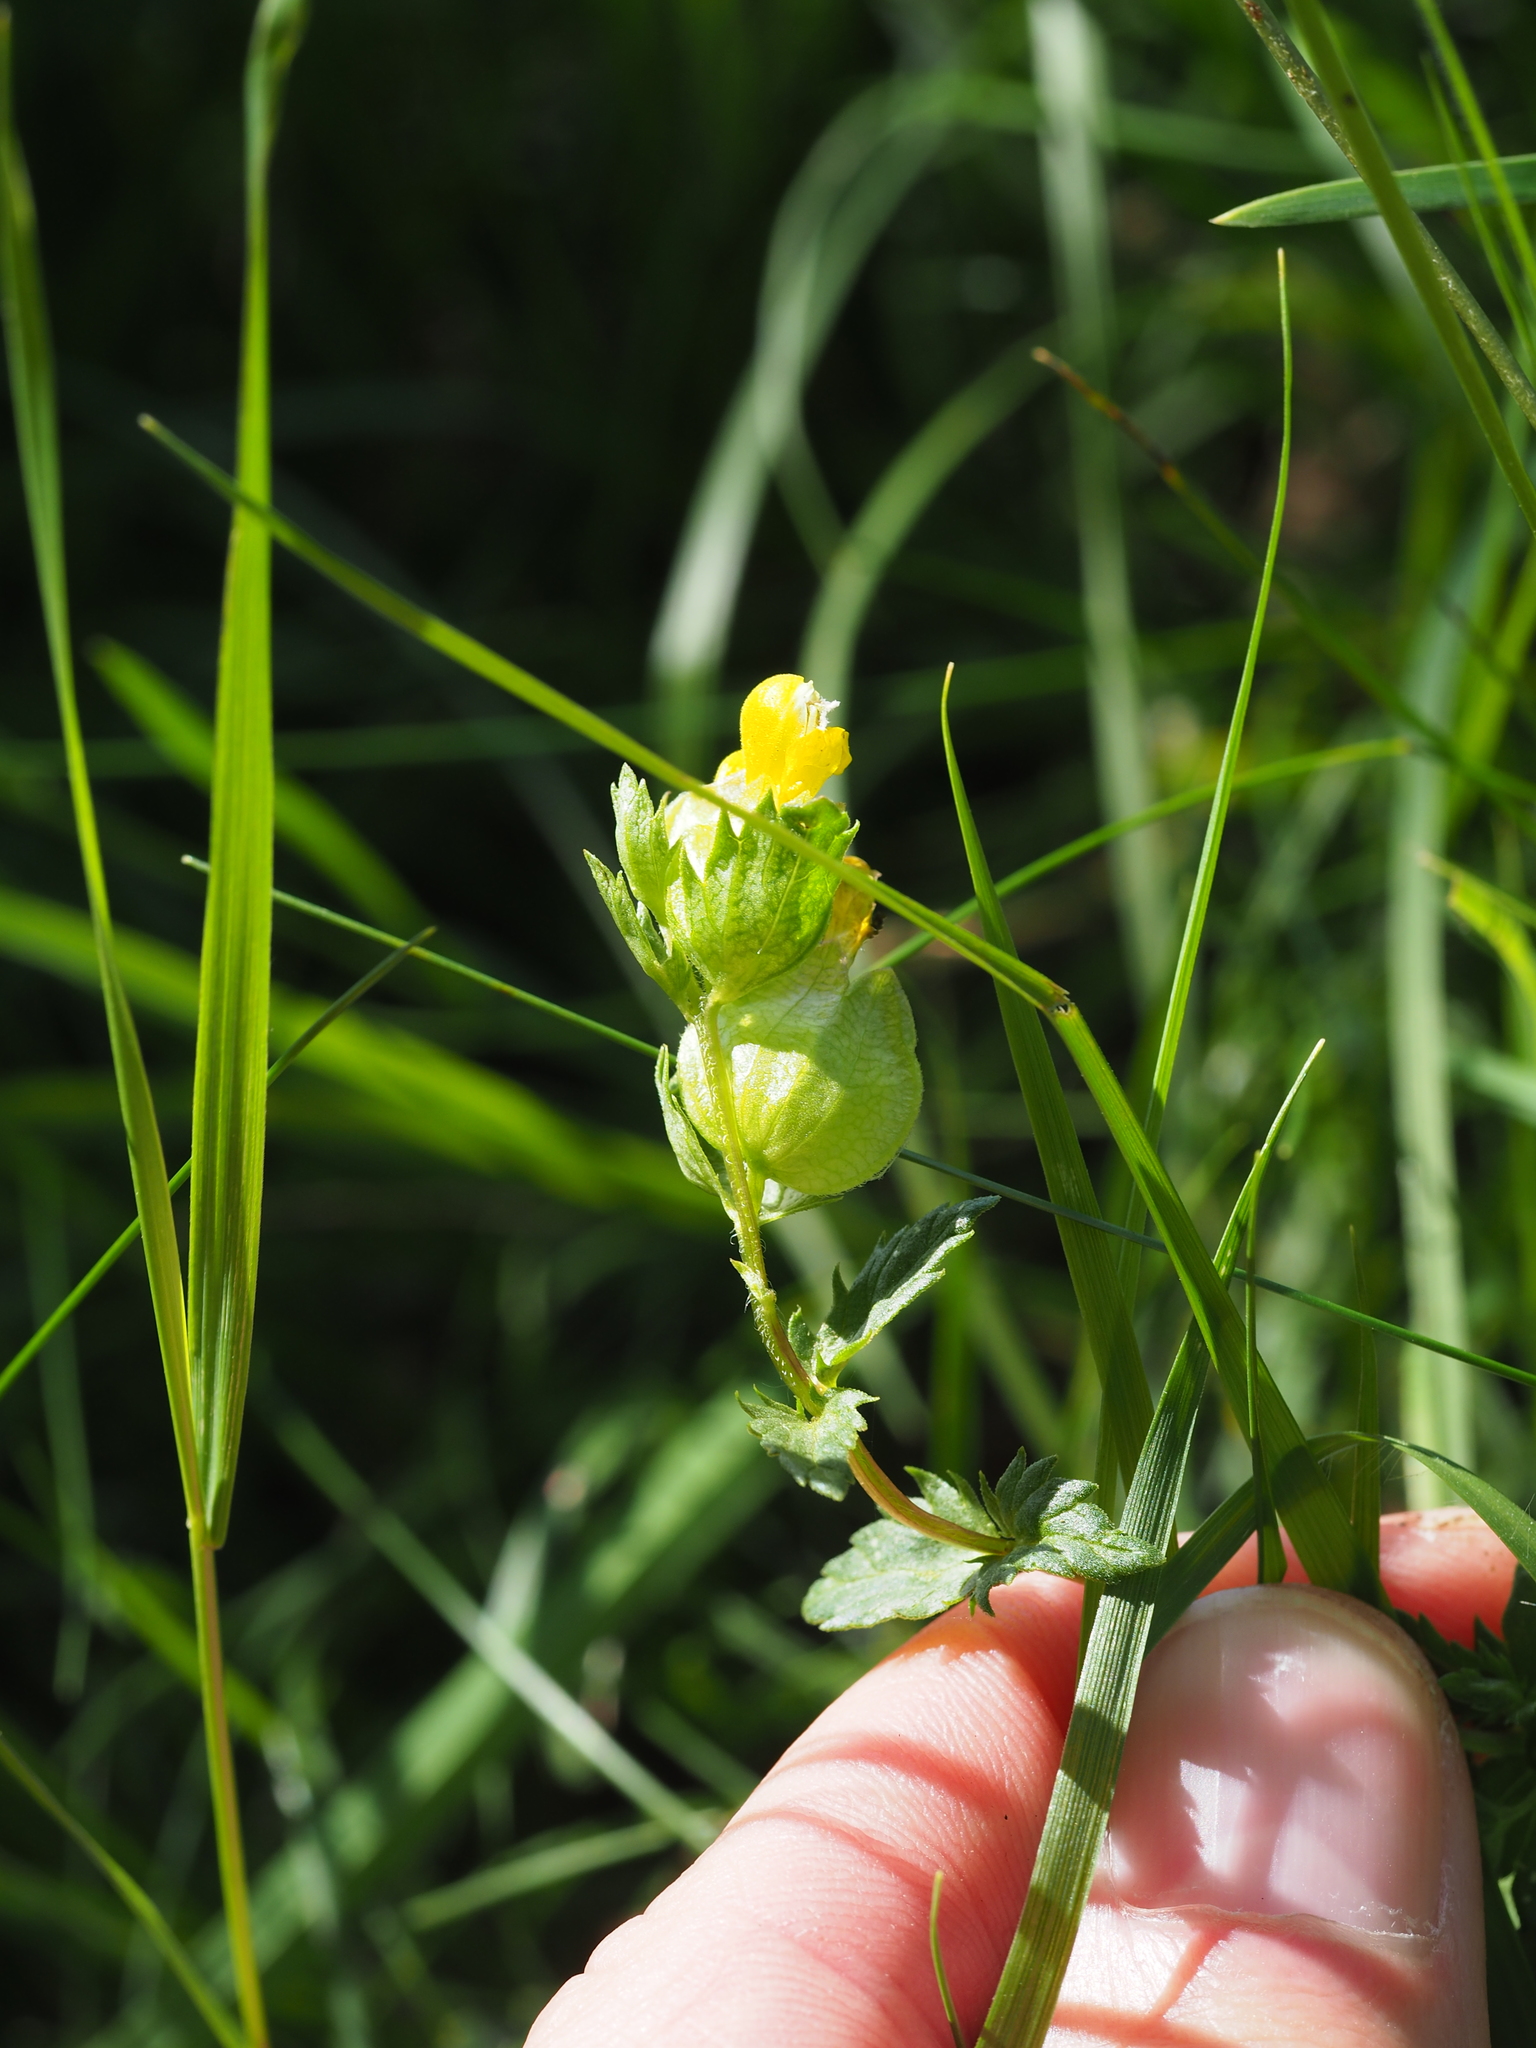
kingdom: Plantae
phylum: Tracheophyta
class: Magnoliopsida
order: Lamiales
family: Orobanchaceae
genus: Rhinanthus
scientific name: Rhinanthus minor
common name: Yellow-rattle
